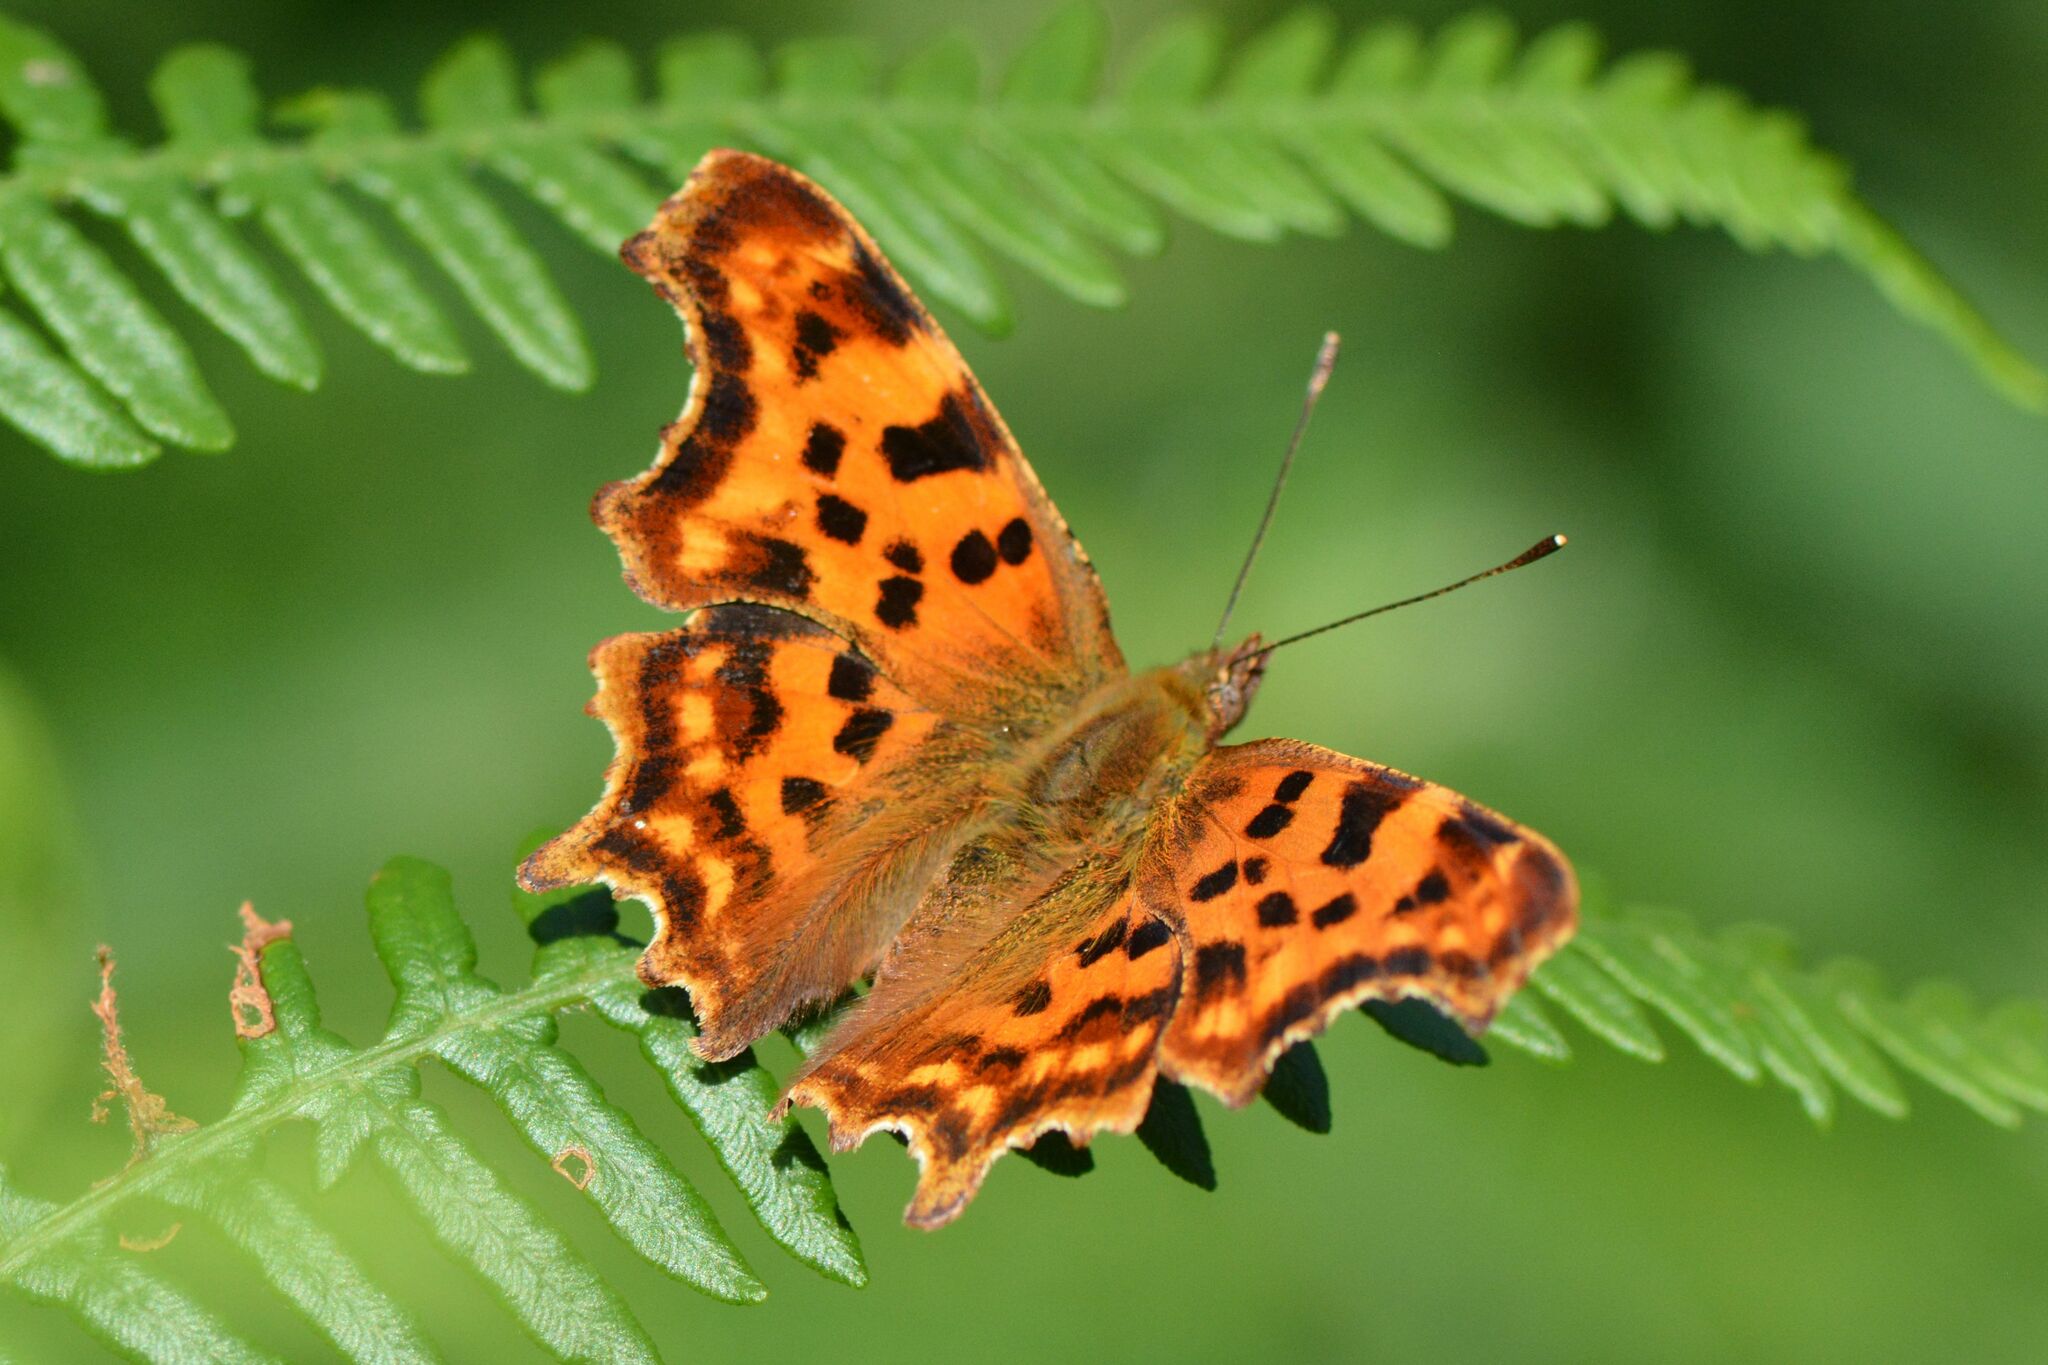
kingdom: Animalia
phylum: Arthropoda
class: Insecta
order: Lepidoptera
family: Nymphalidae
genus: Polygonia
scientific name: Polygonia c-album
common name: Comma
